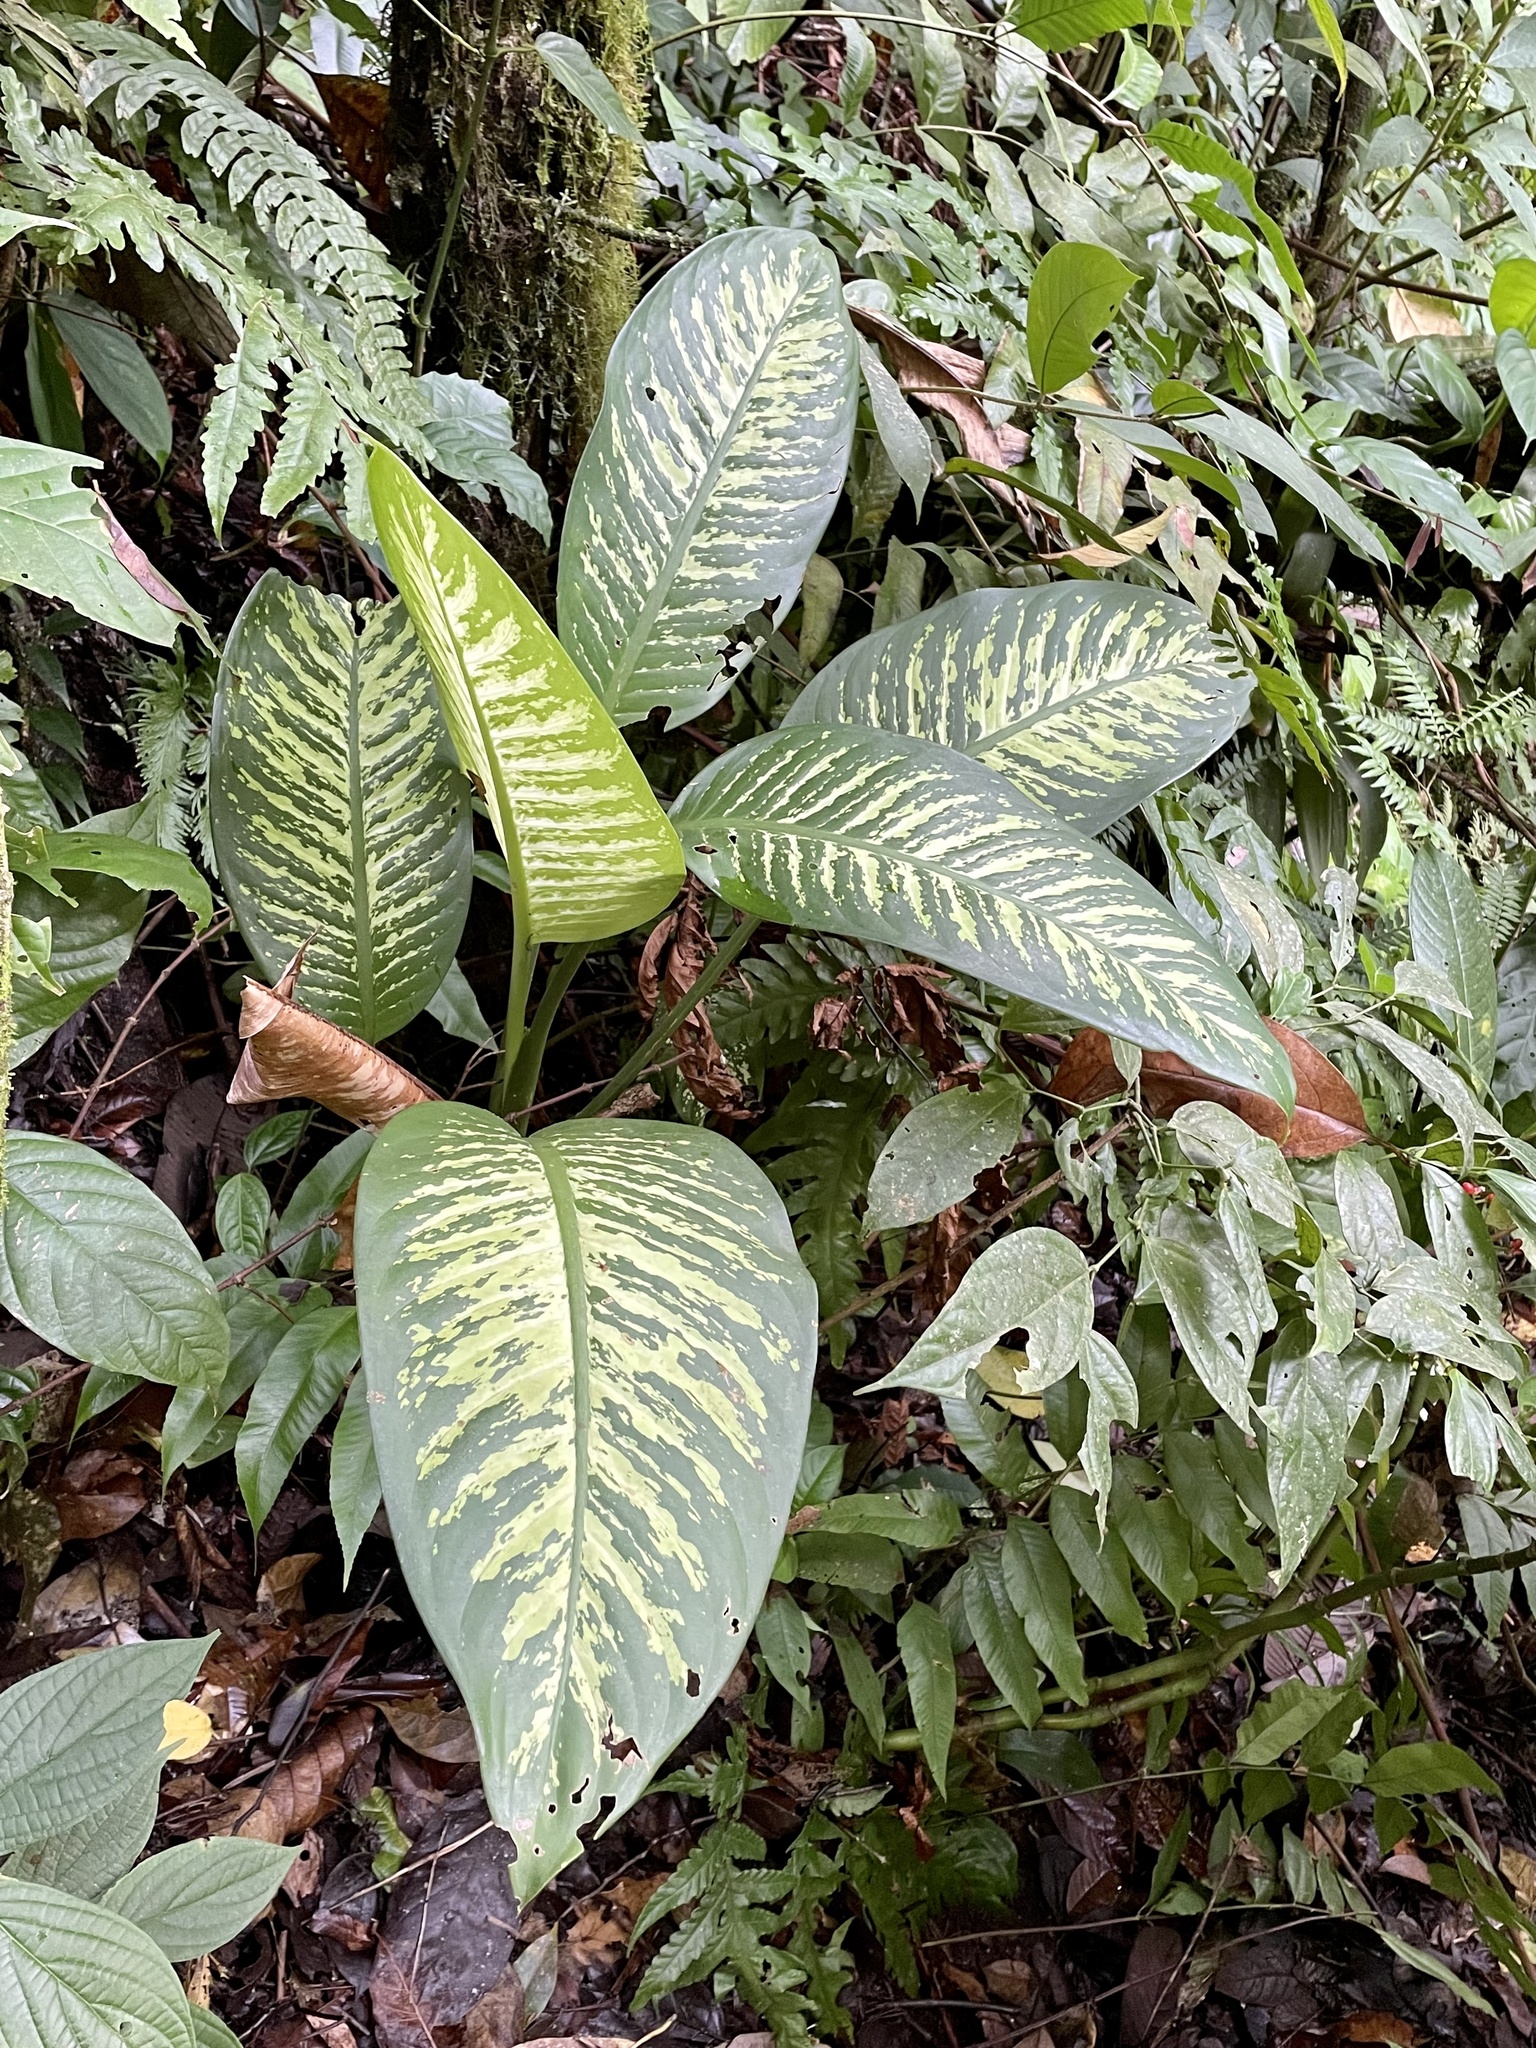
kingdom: Plantae
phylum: Tracheophyta
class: Liliopsida
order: Alismatales
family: Araceae
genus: Dieffenbachia
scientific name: Dieffenbachia seguine
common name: Dumbcane
